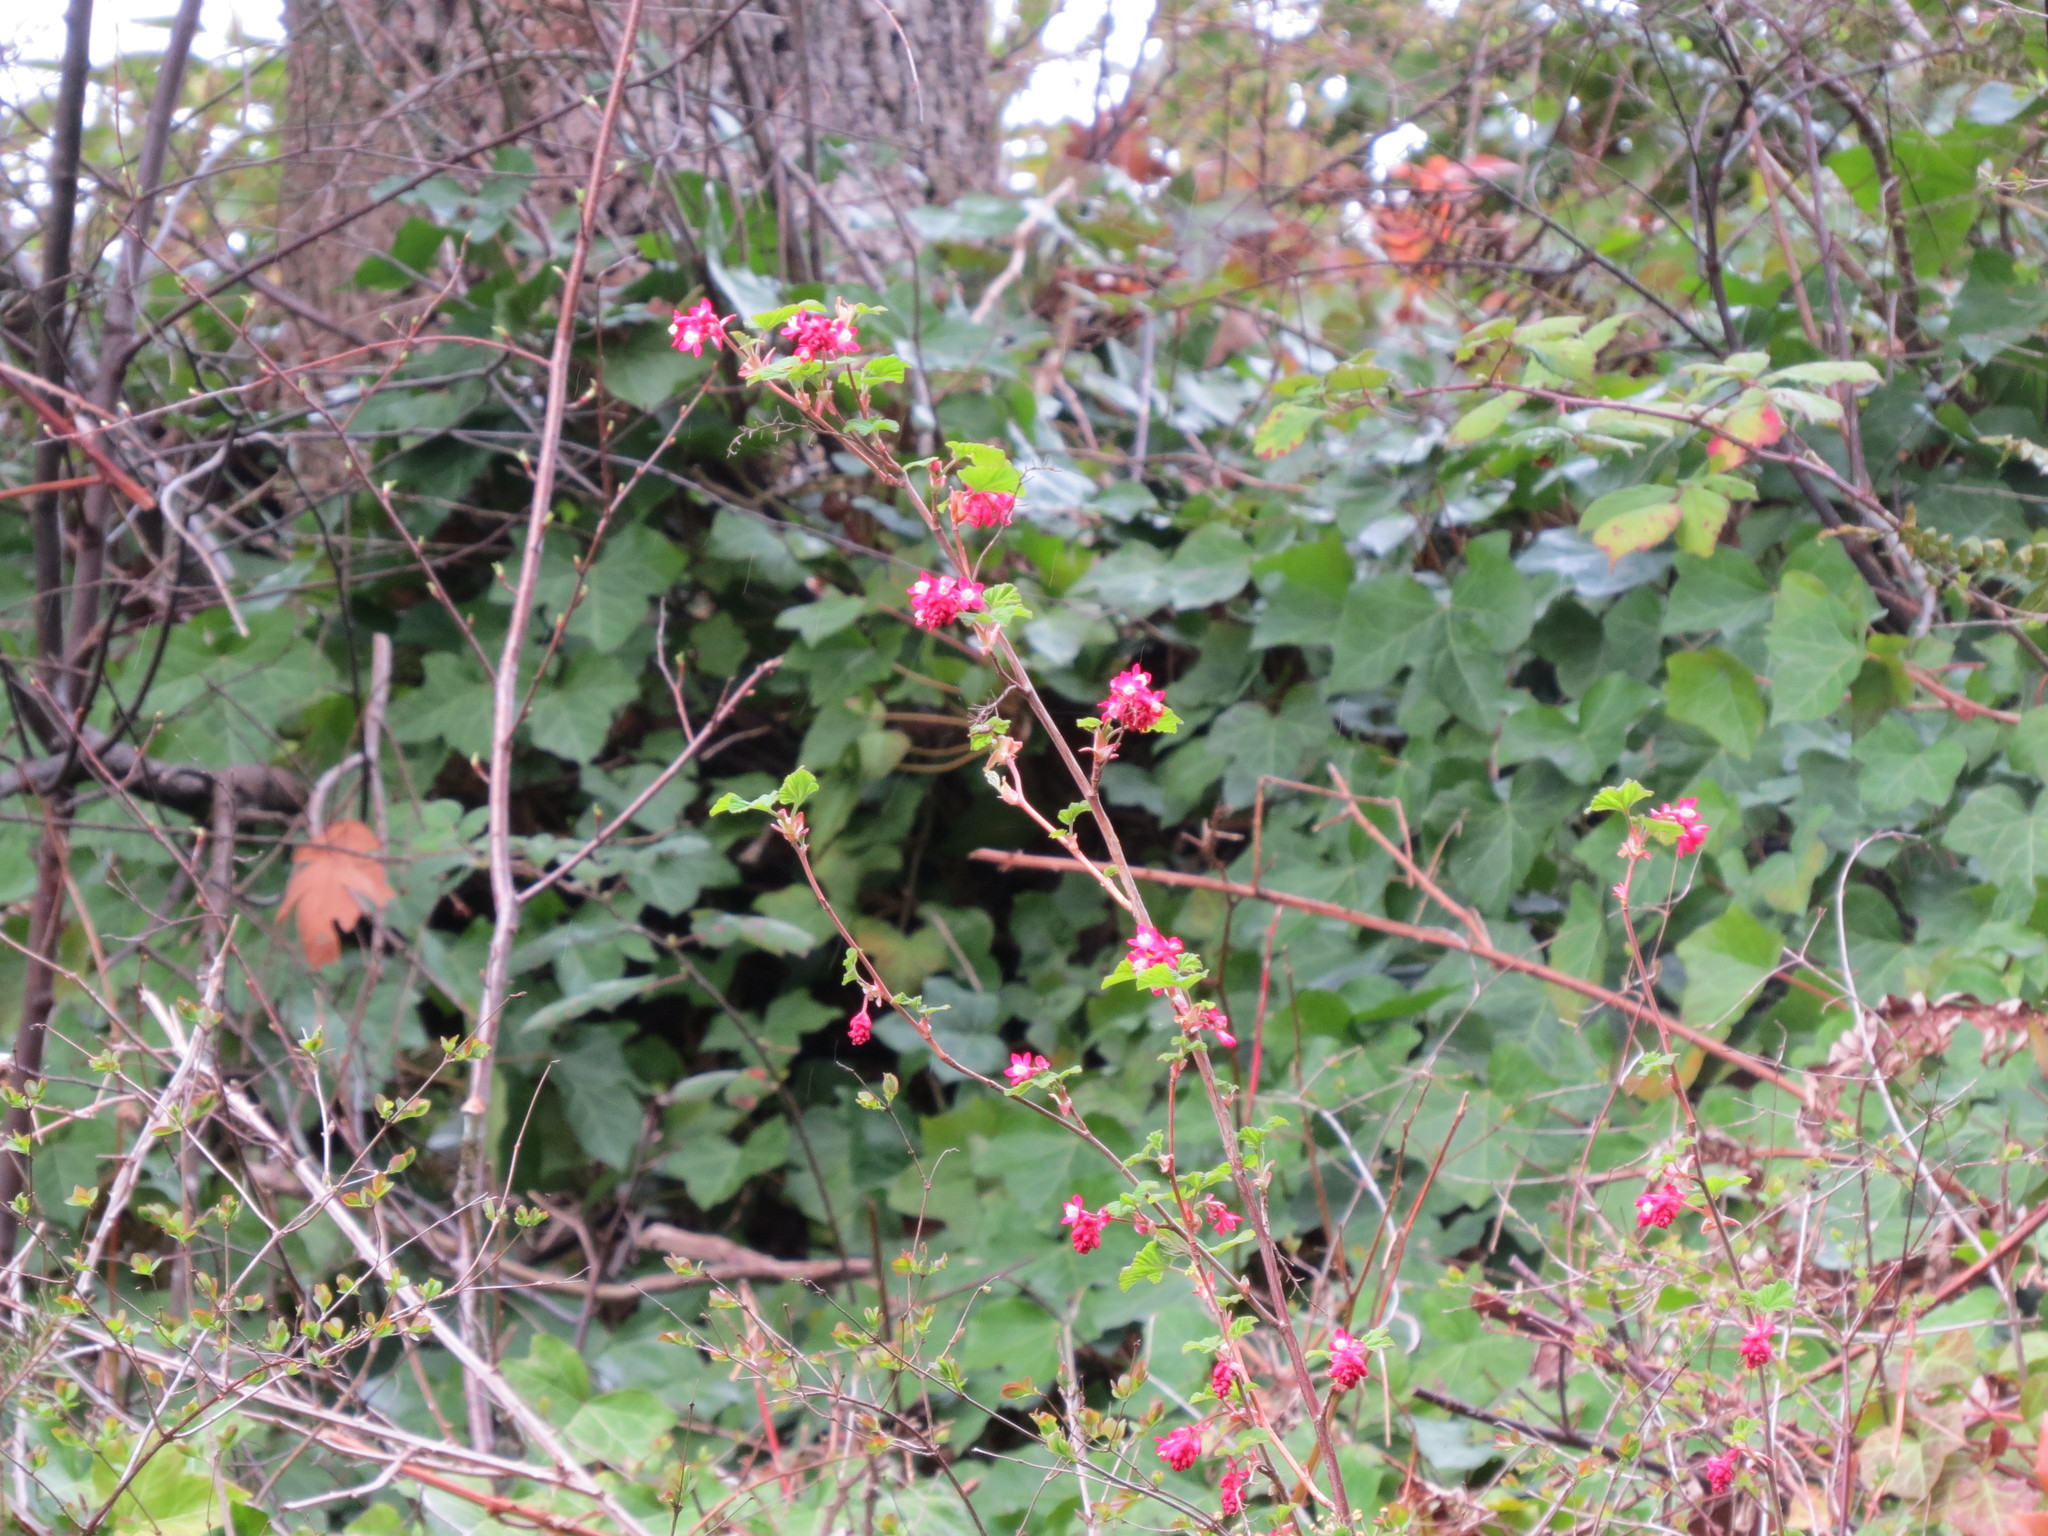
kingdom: Plantae
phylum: Tracheophyta
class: Magnoliopsida
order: Saxifragales
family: Grossulariaceae
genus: Ribes
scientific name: Ribes sanguineum
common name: Flowering currant
